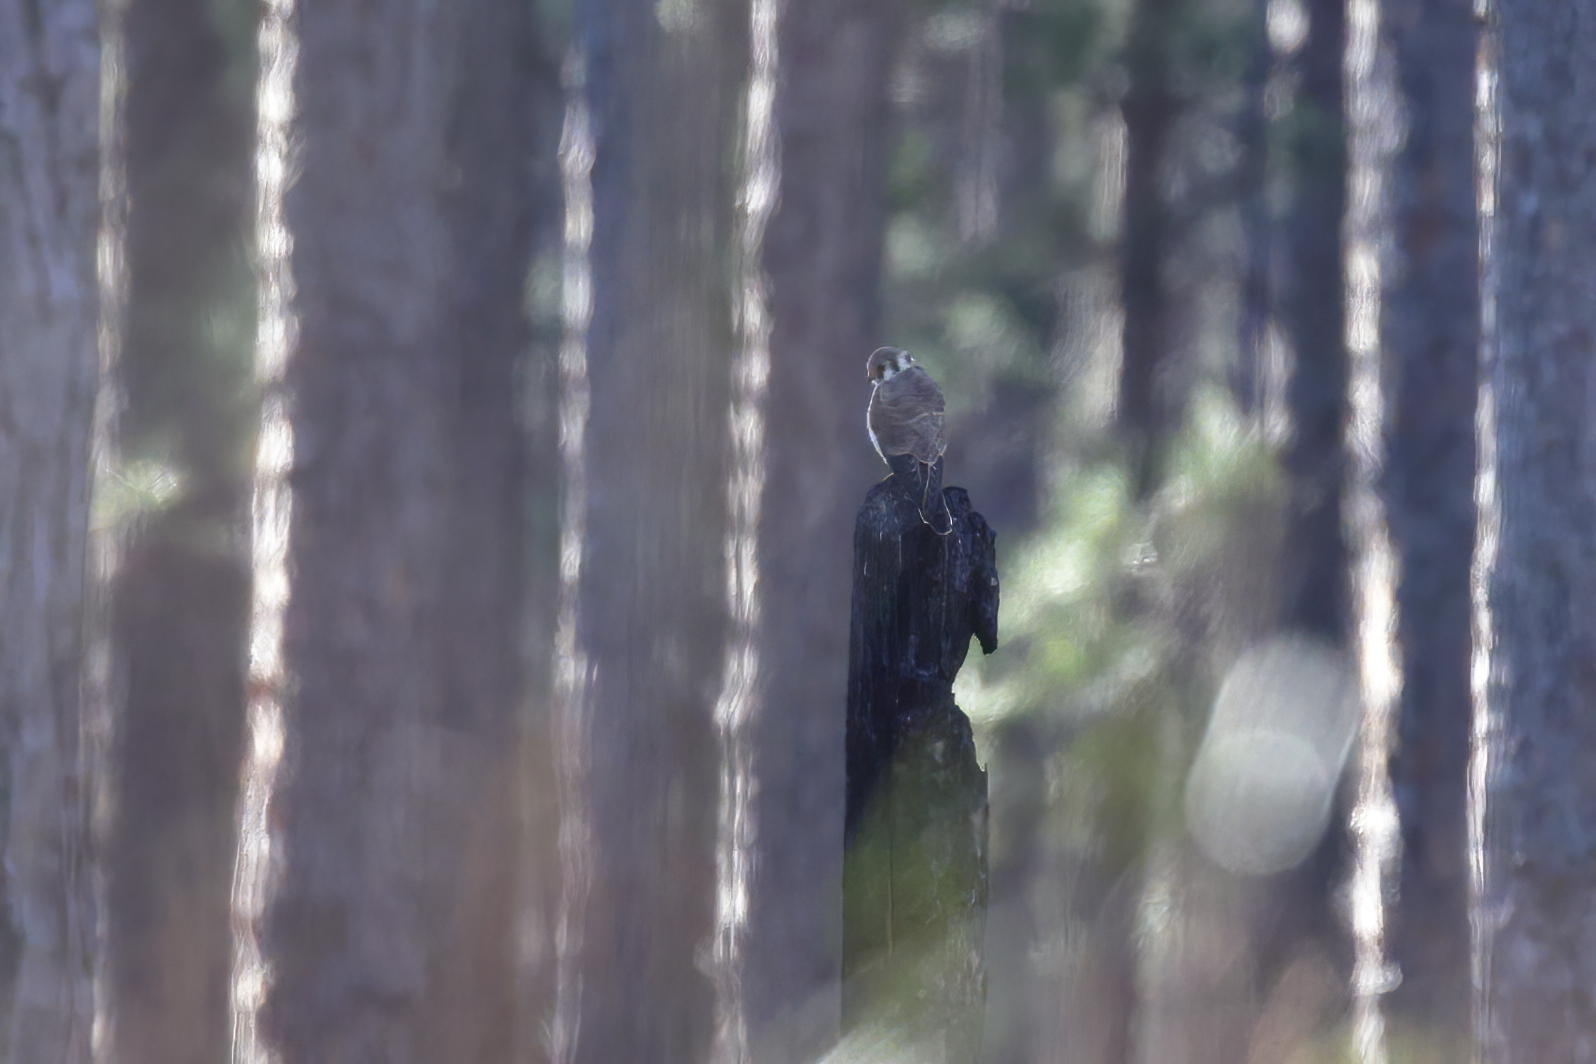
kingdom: Animalia
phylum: Chordata
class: Aves
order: Falconiformes
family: Falconidae
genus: Falco
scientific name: Falco sparverius
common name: American kestrel
